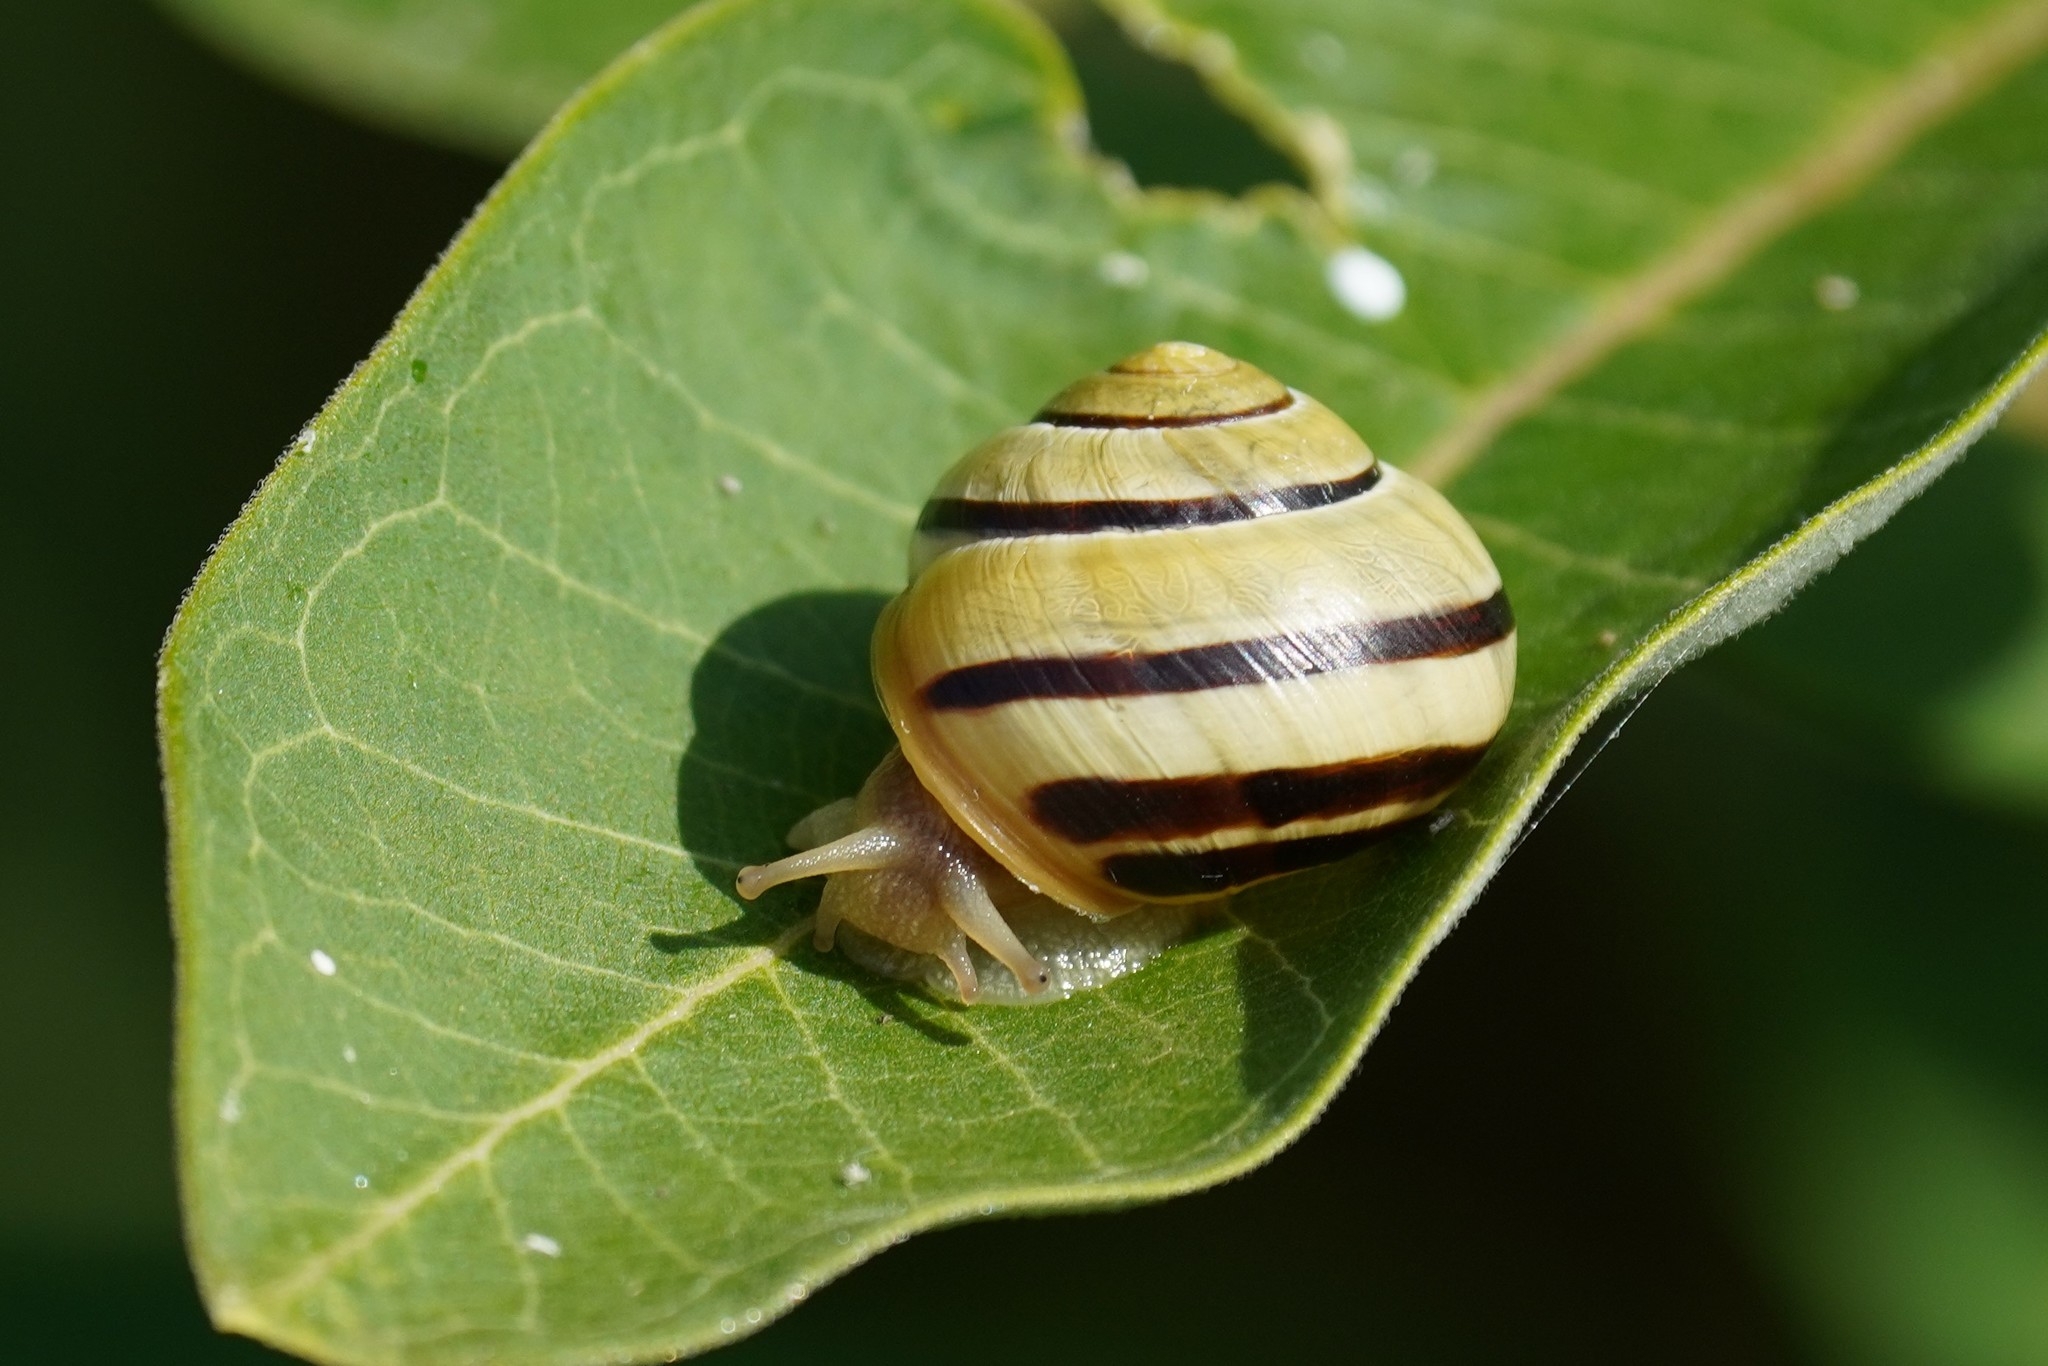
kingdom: Animalia
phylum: Mollusca
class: Gastropoda
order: Stylommatophora
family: Helicidae
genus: Cepaea
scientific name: Cepaea nemoralis
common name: Grovesnail
